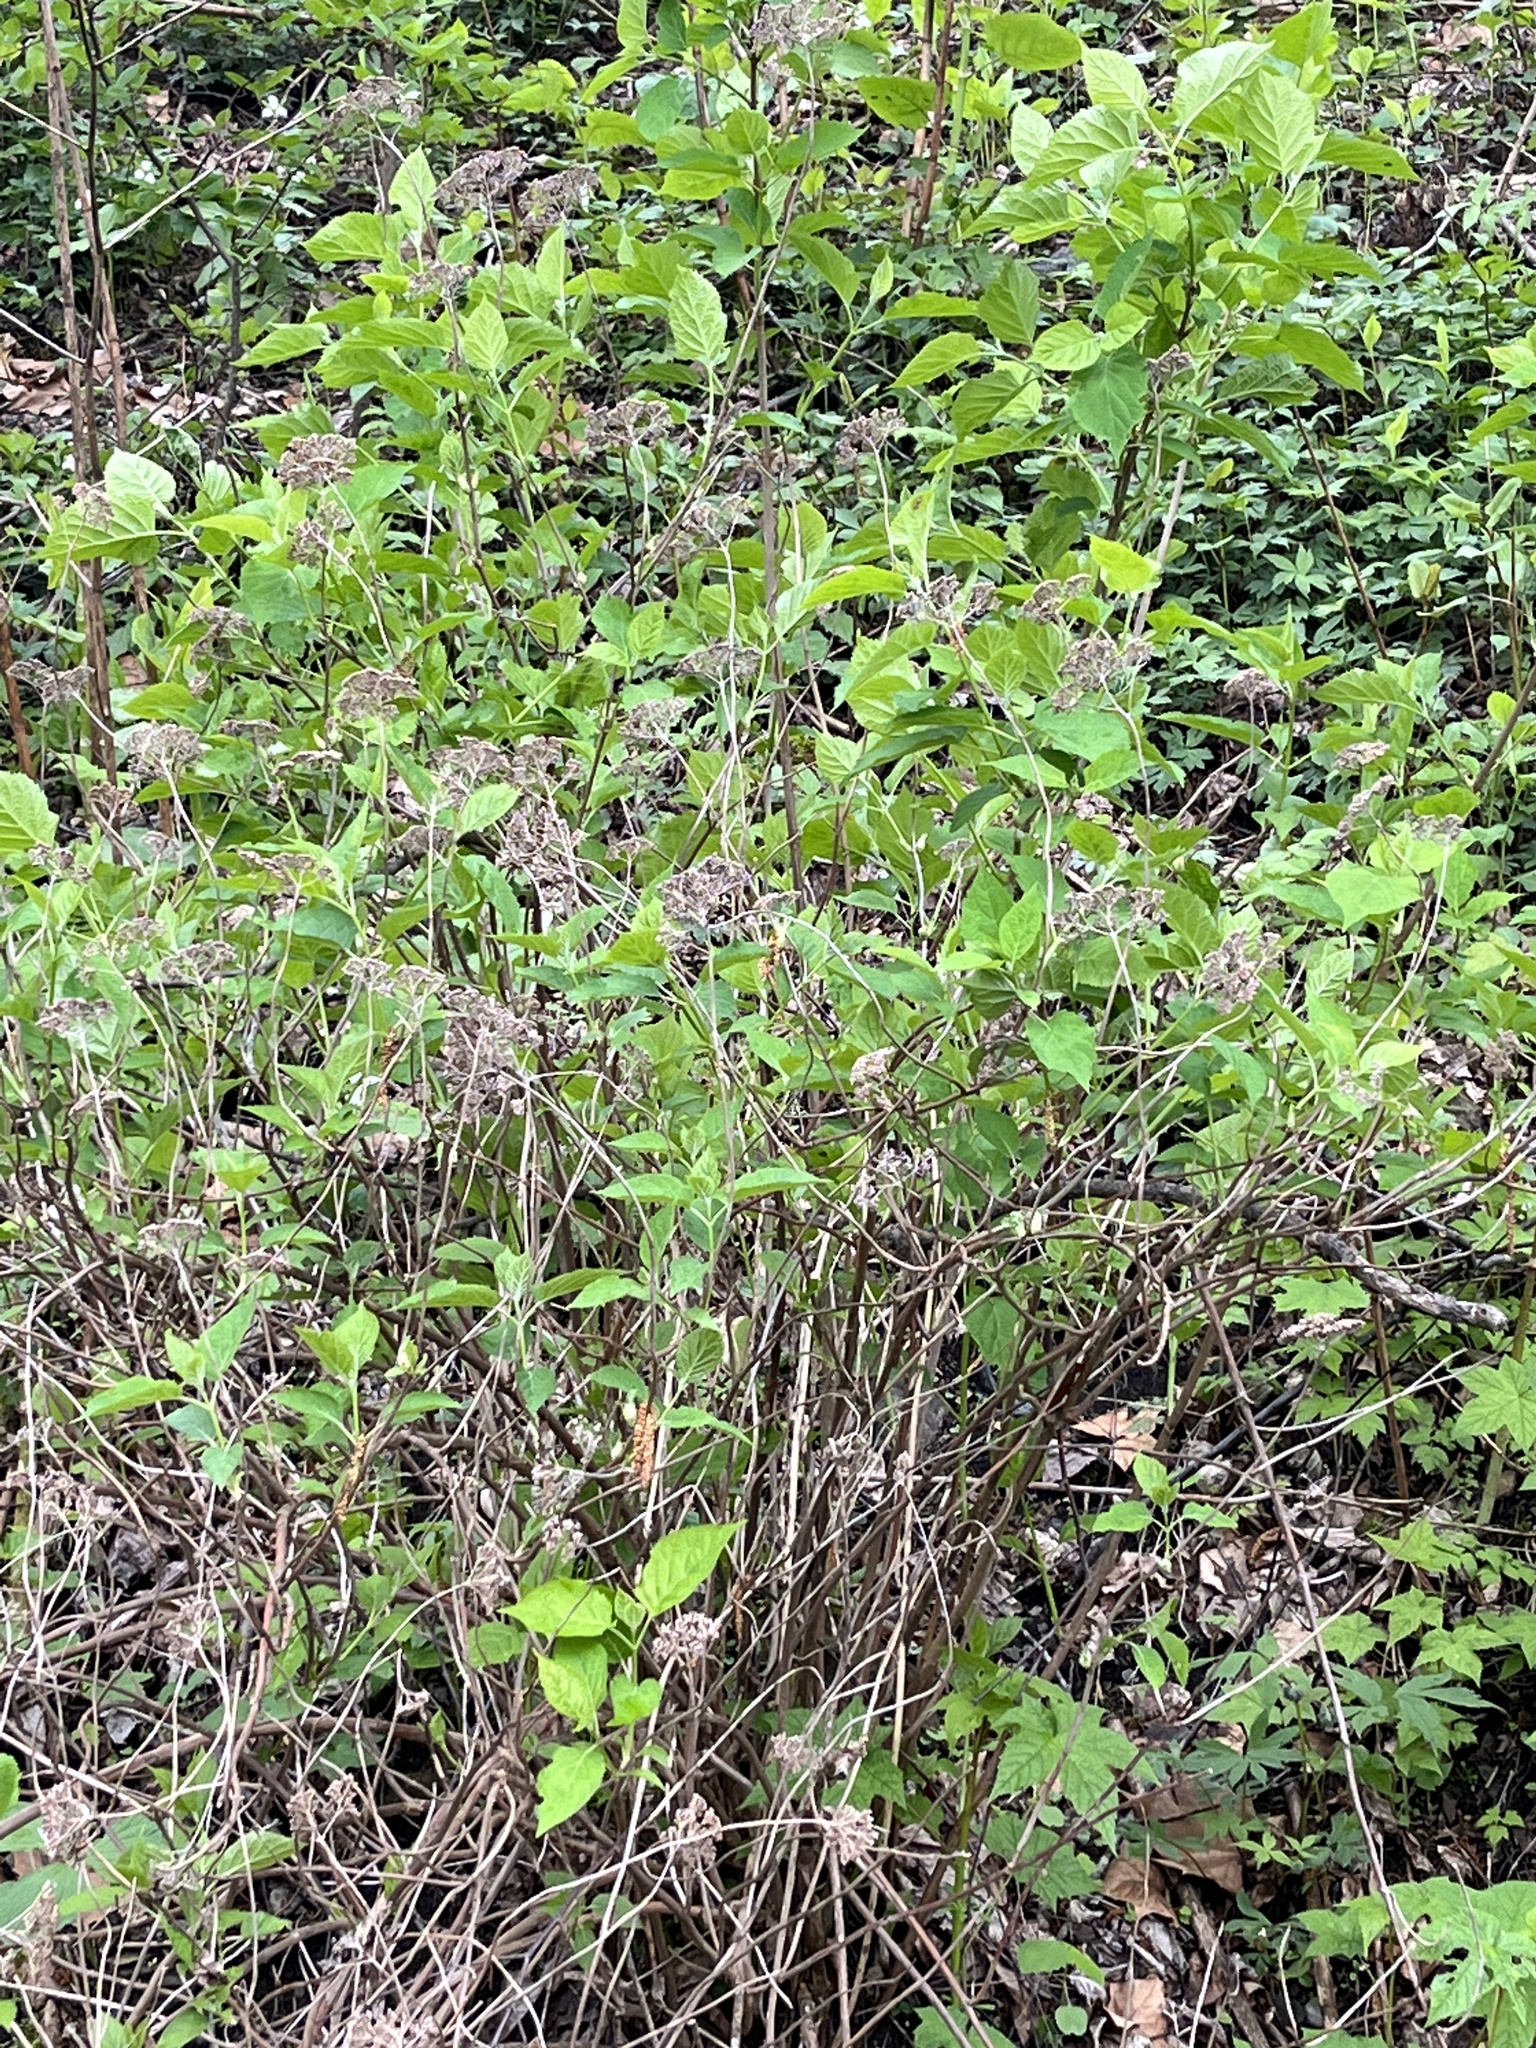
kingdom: Plantae
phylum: Tracheophyta
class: Magnoliopsida
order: Cornales
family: Hydrangeaceae
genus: Hydrangea
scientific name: Hydrangea arborescens
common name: Sevenbark
